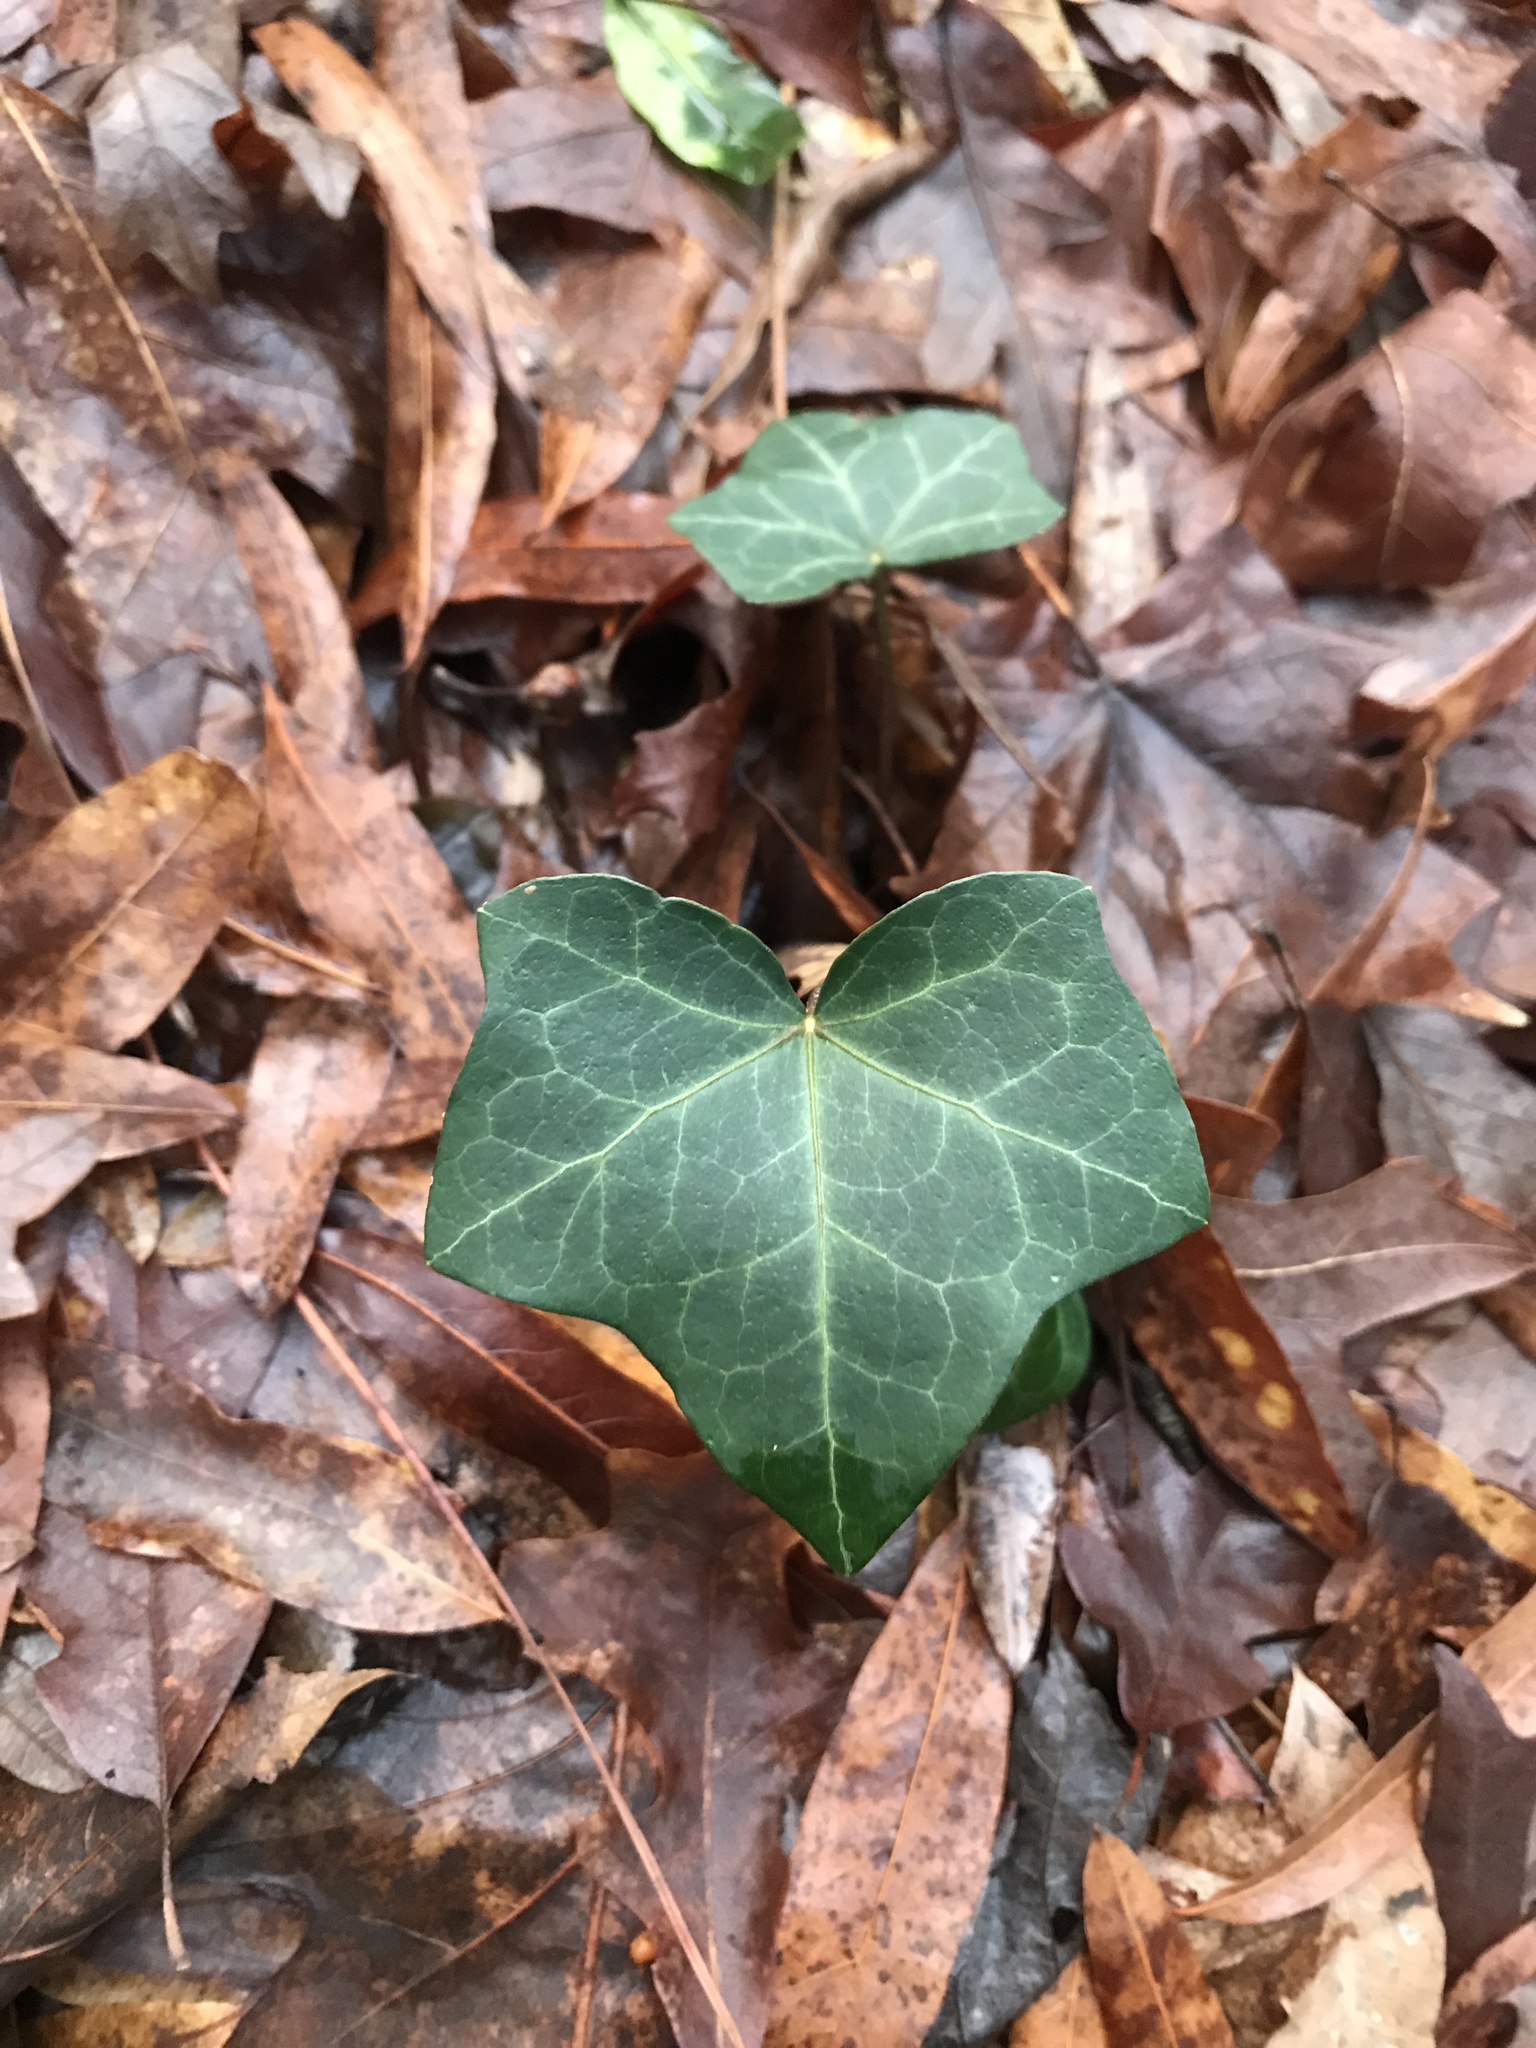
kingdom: Plantae
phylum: Tracheophyta
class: Magnoliopsida
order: Apiales
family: Araliaceae
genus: Hedera
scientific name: Hedera helix
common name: Ivy
